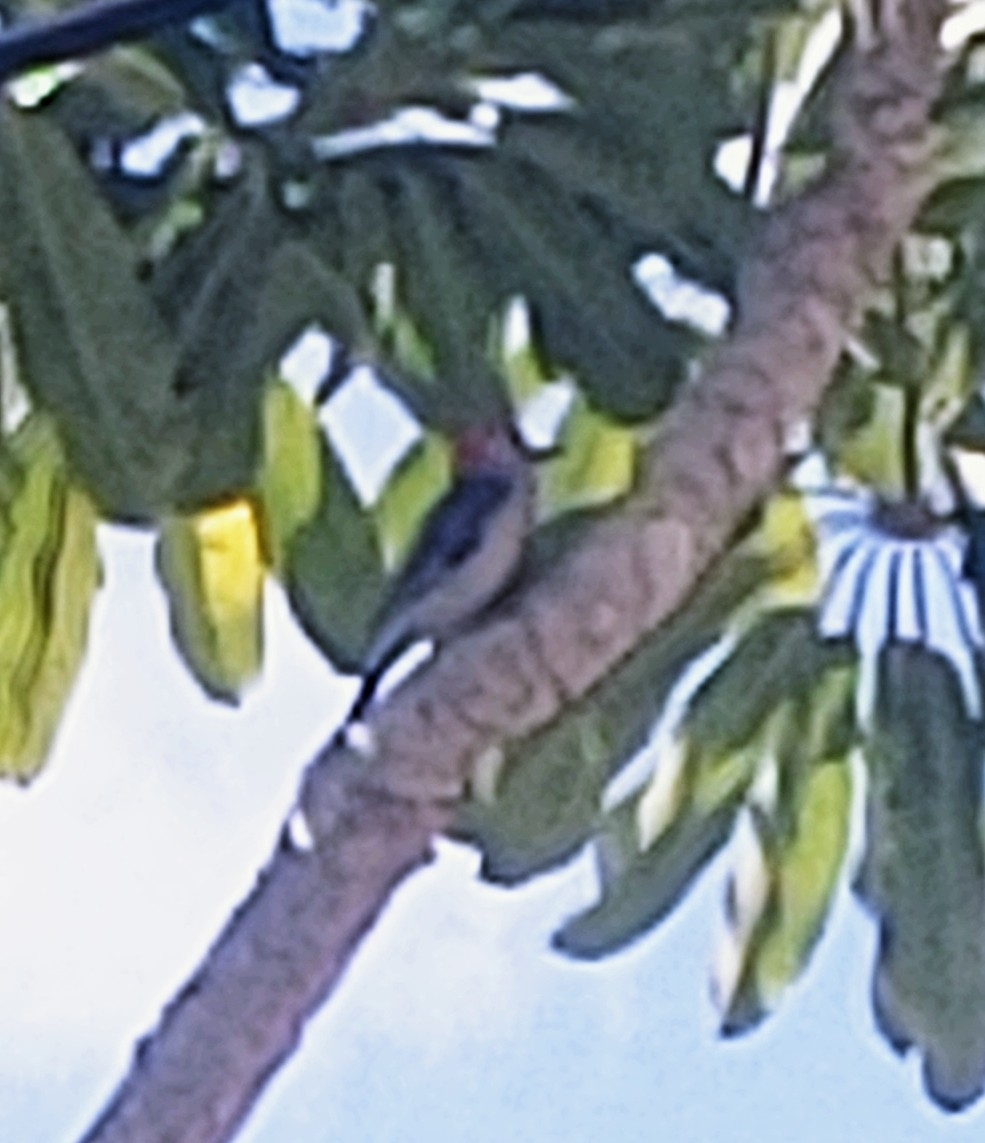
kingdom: Animalia
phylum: Chordata
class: Aves
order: Piciformes
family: Picidae
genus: Melanerpes
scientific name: Melanerpes carolinus
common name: Red-bellied woodpecker
